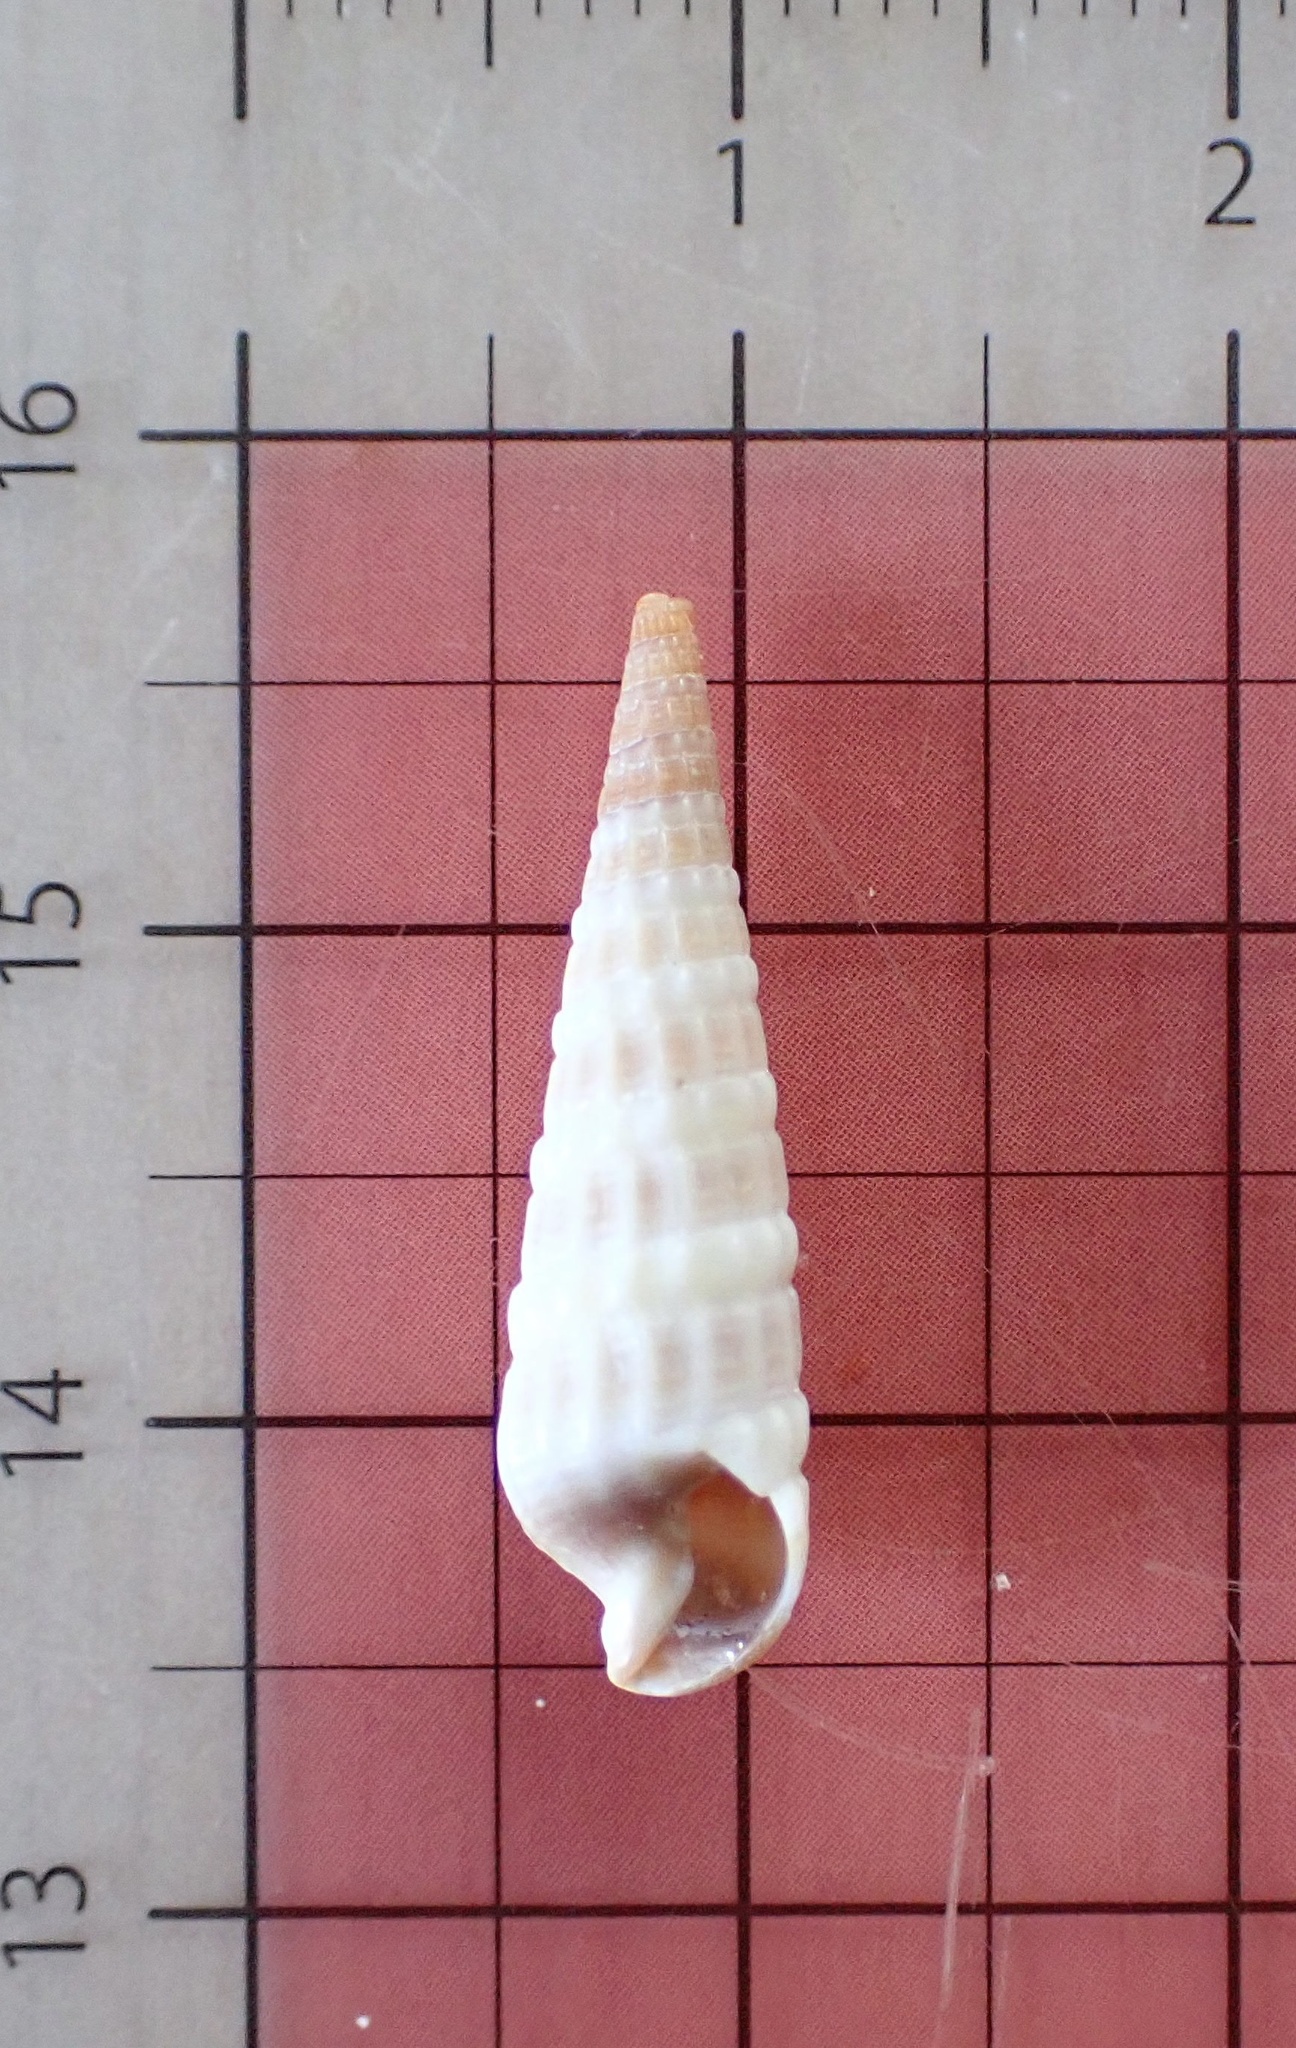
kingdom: Animalia
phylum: Mollusca
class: Gastropoda
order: Neogastropoda
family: Terebridae
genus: Neoterebra
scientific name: Neoterebra dislocata
